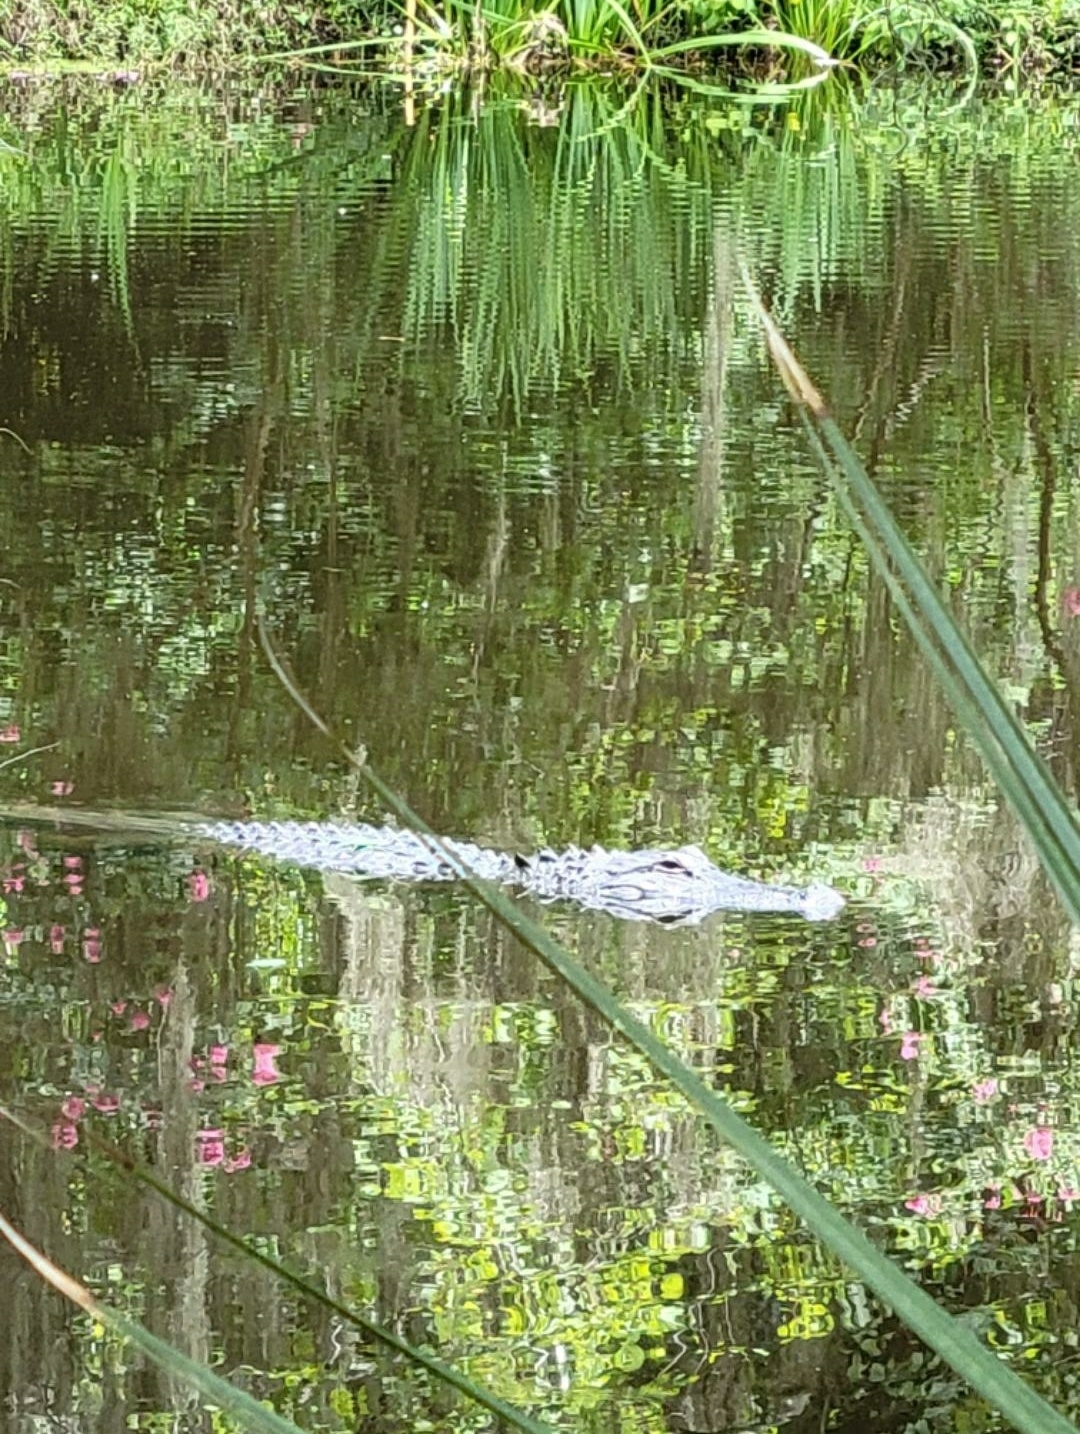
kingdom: Animalia
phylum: Chordata
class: Crocodylia
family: Alligatoridae
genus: Alligator
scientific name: Alligator mississippiensis
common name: American alligator
